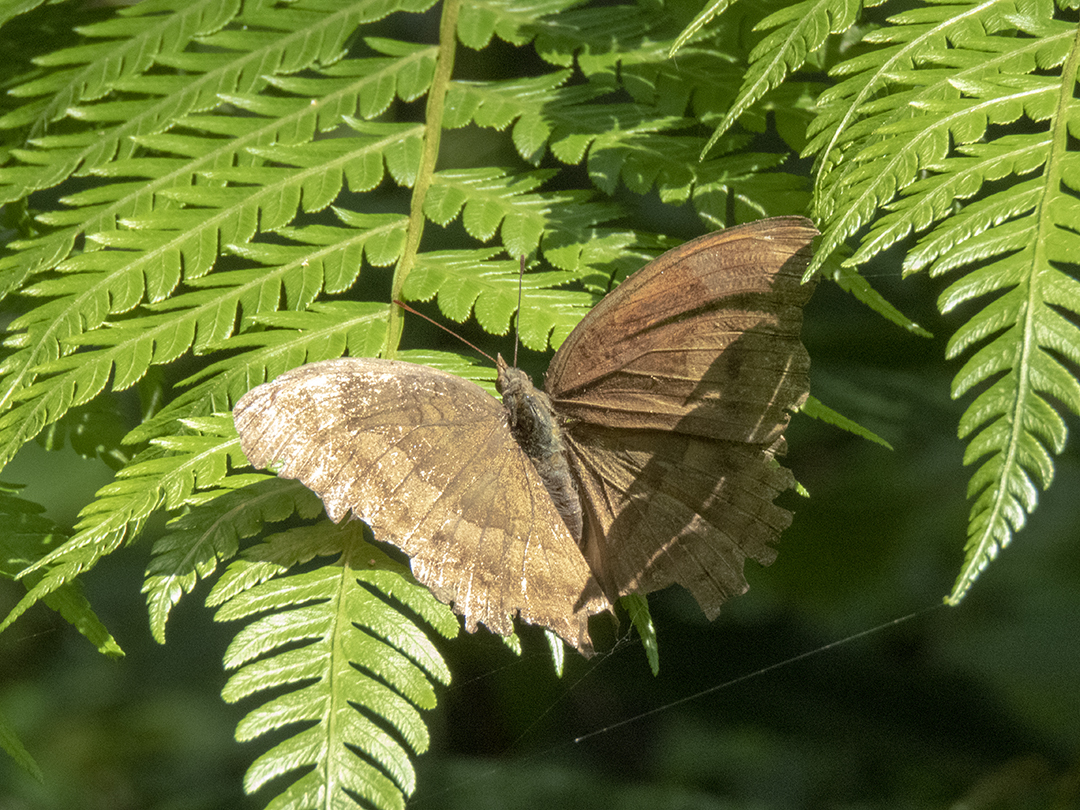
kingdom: Animalia
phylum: Arthropoda
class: Insecta
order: Lepidoptera
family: Nymphalidae
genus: Junonia
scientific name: Junonia iphita
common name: Chocolate pansy
